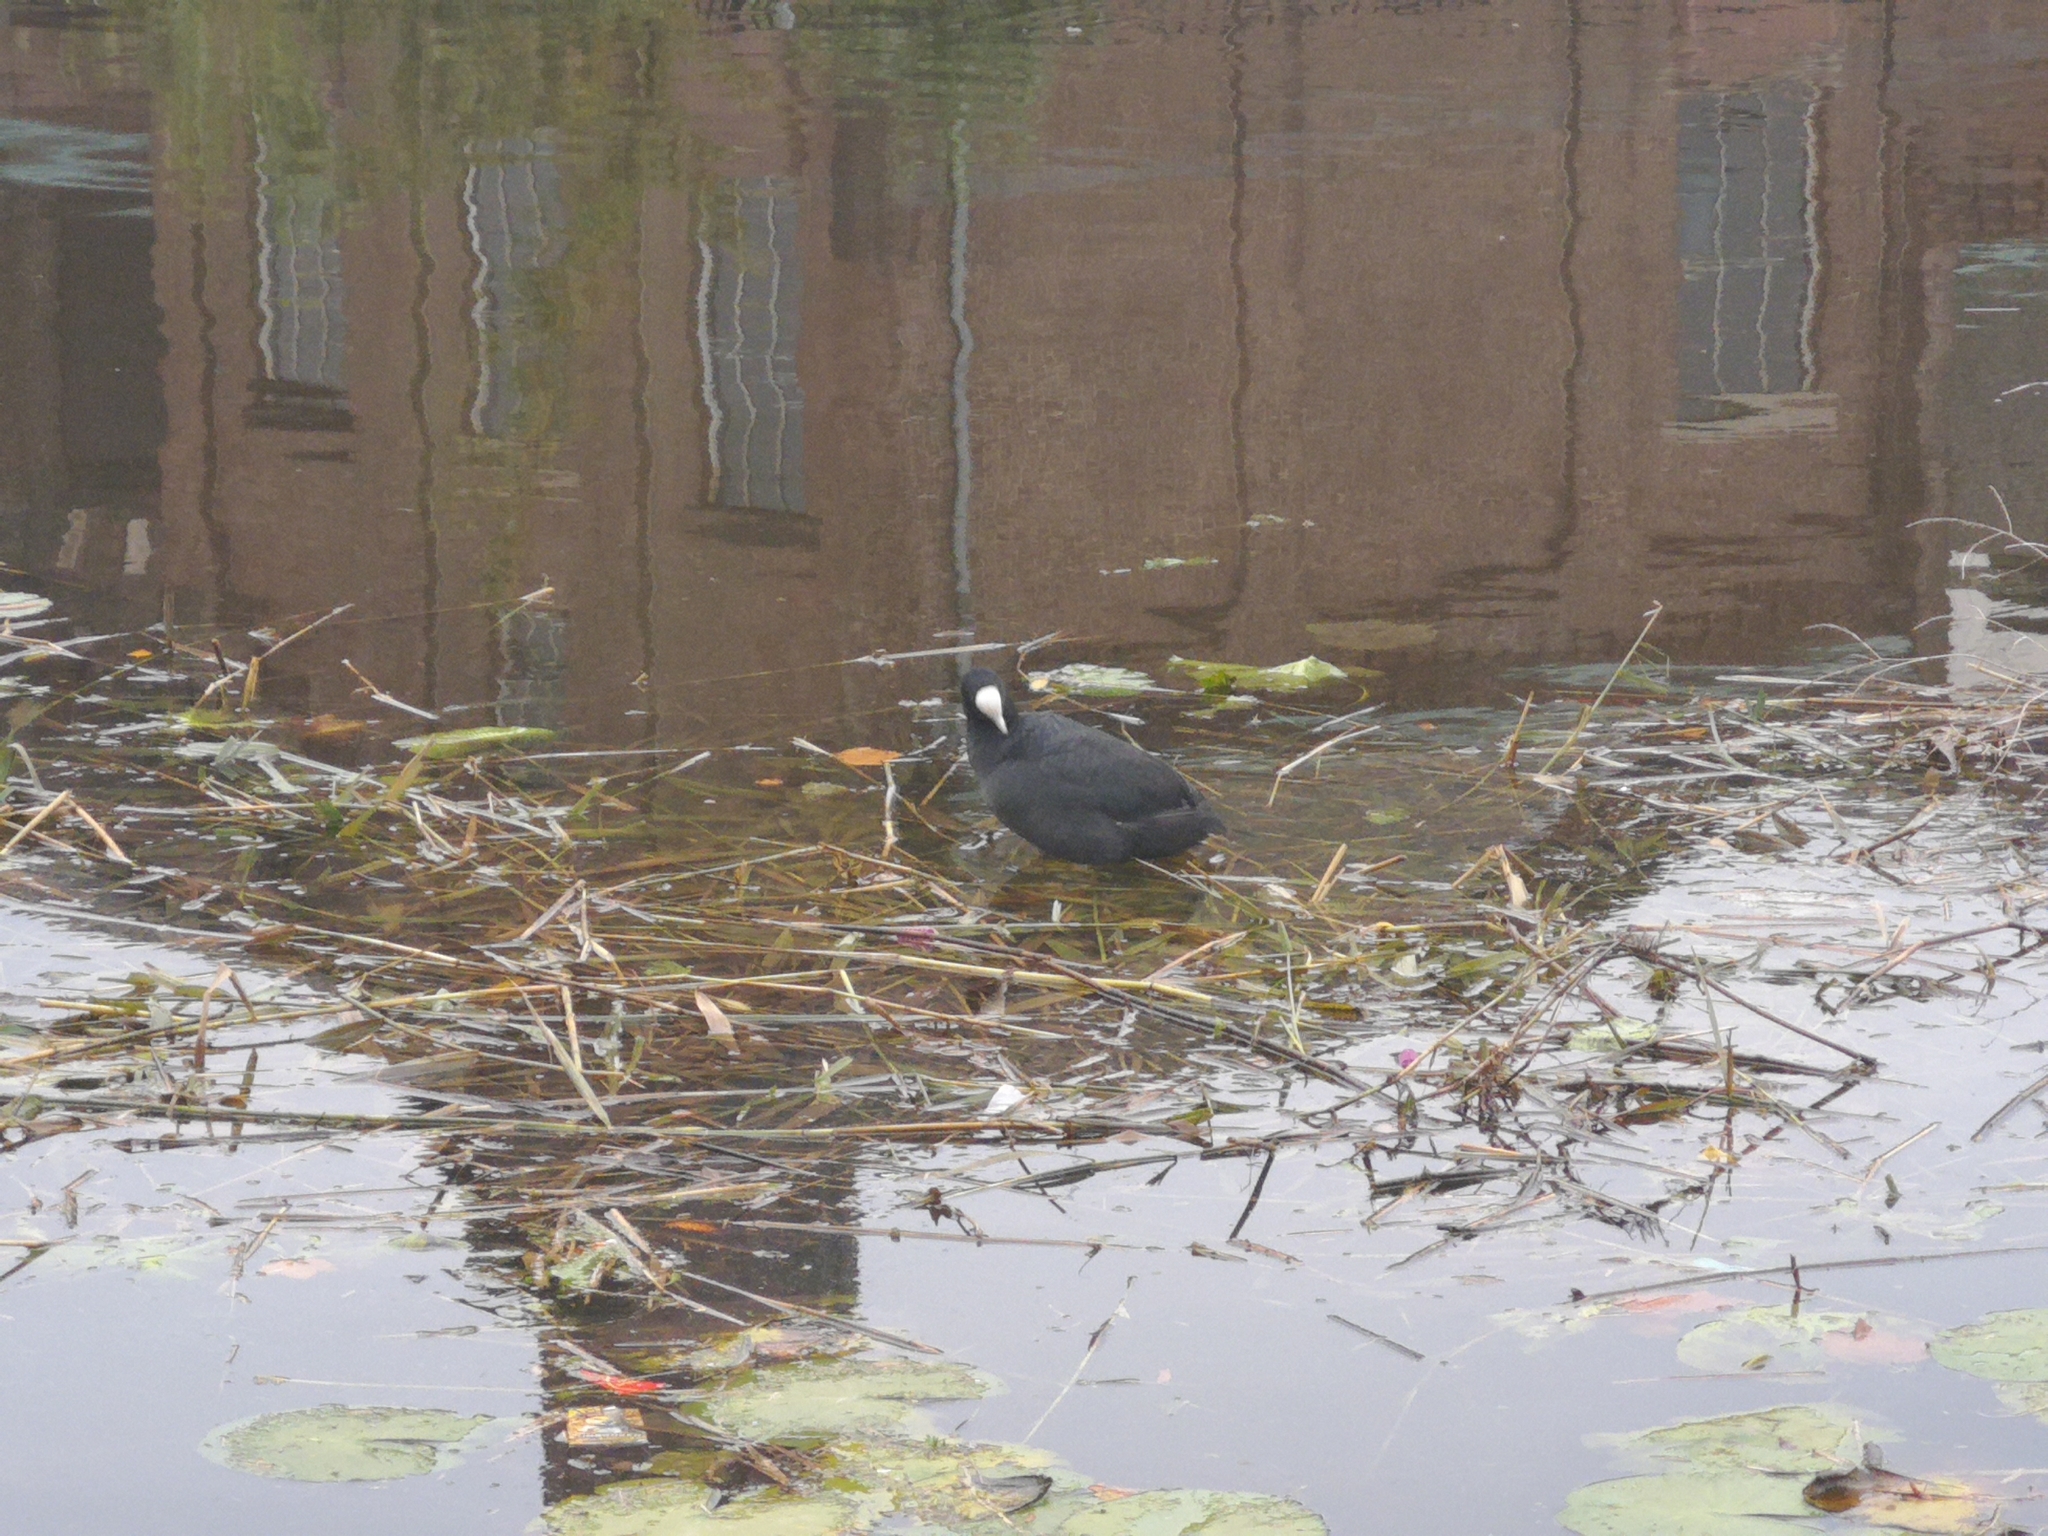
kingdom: Animalia
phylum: Chordata
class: Aves
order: Gruiformes
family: Rallidae
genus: Fulica
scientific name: Fulica atra
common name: Eurasian coot
